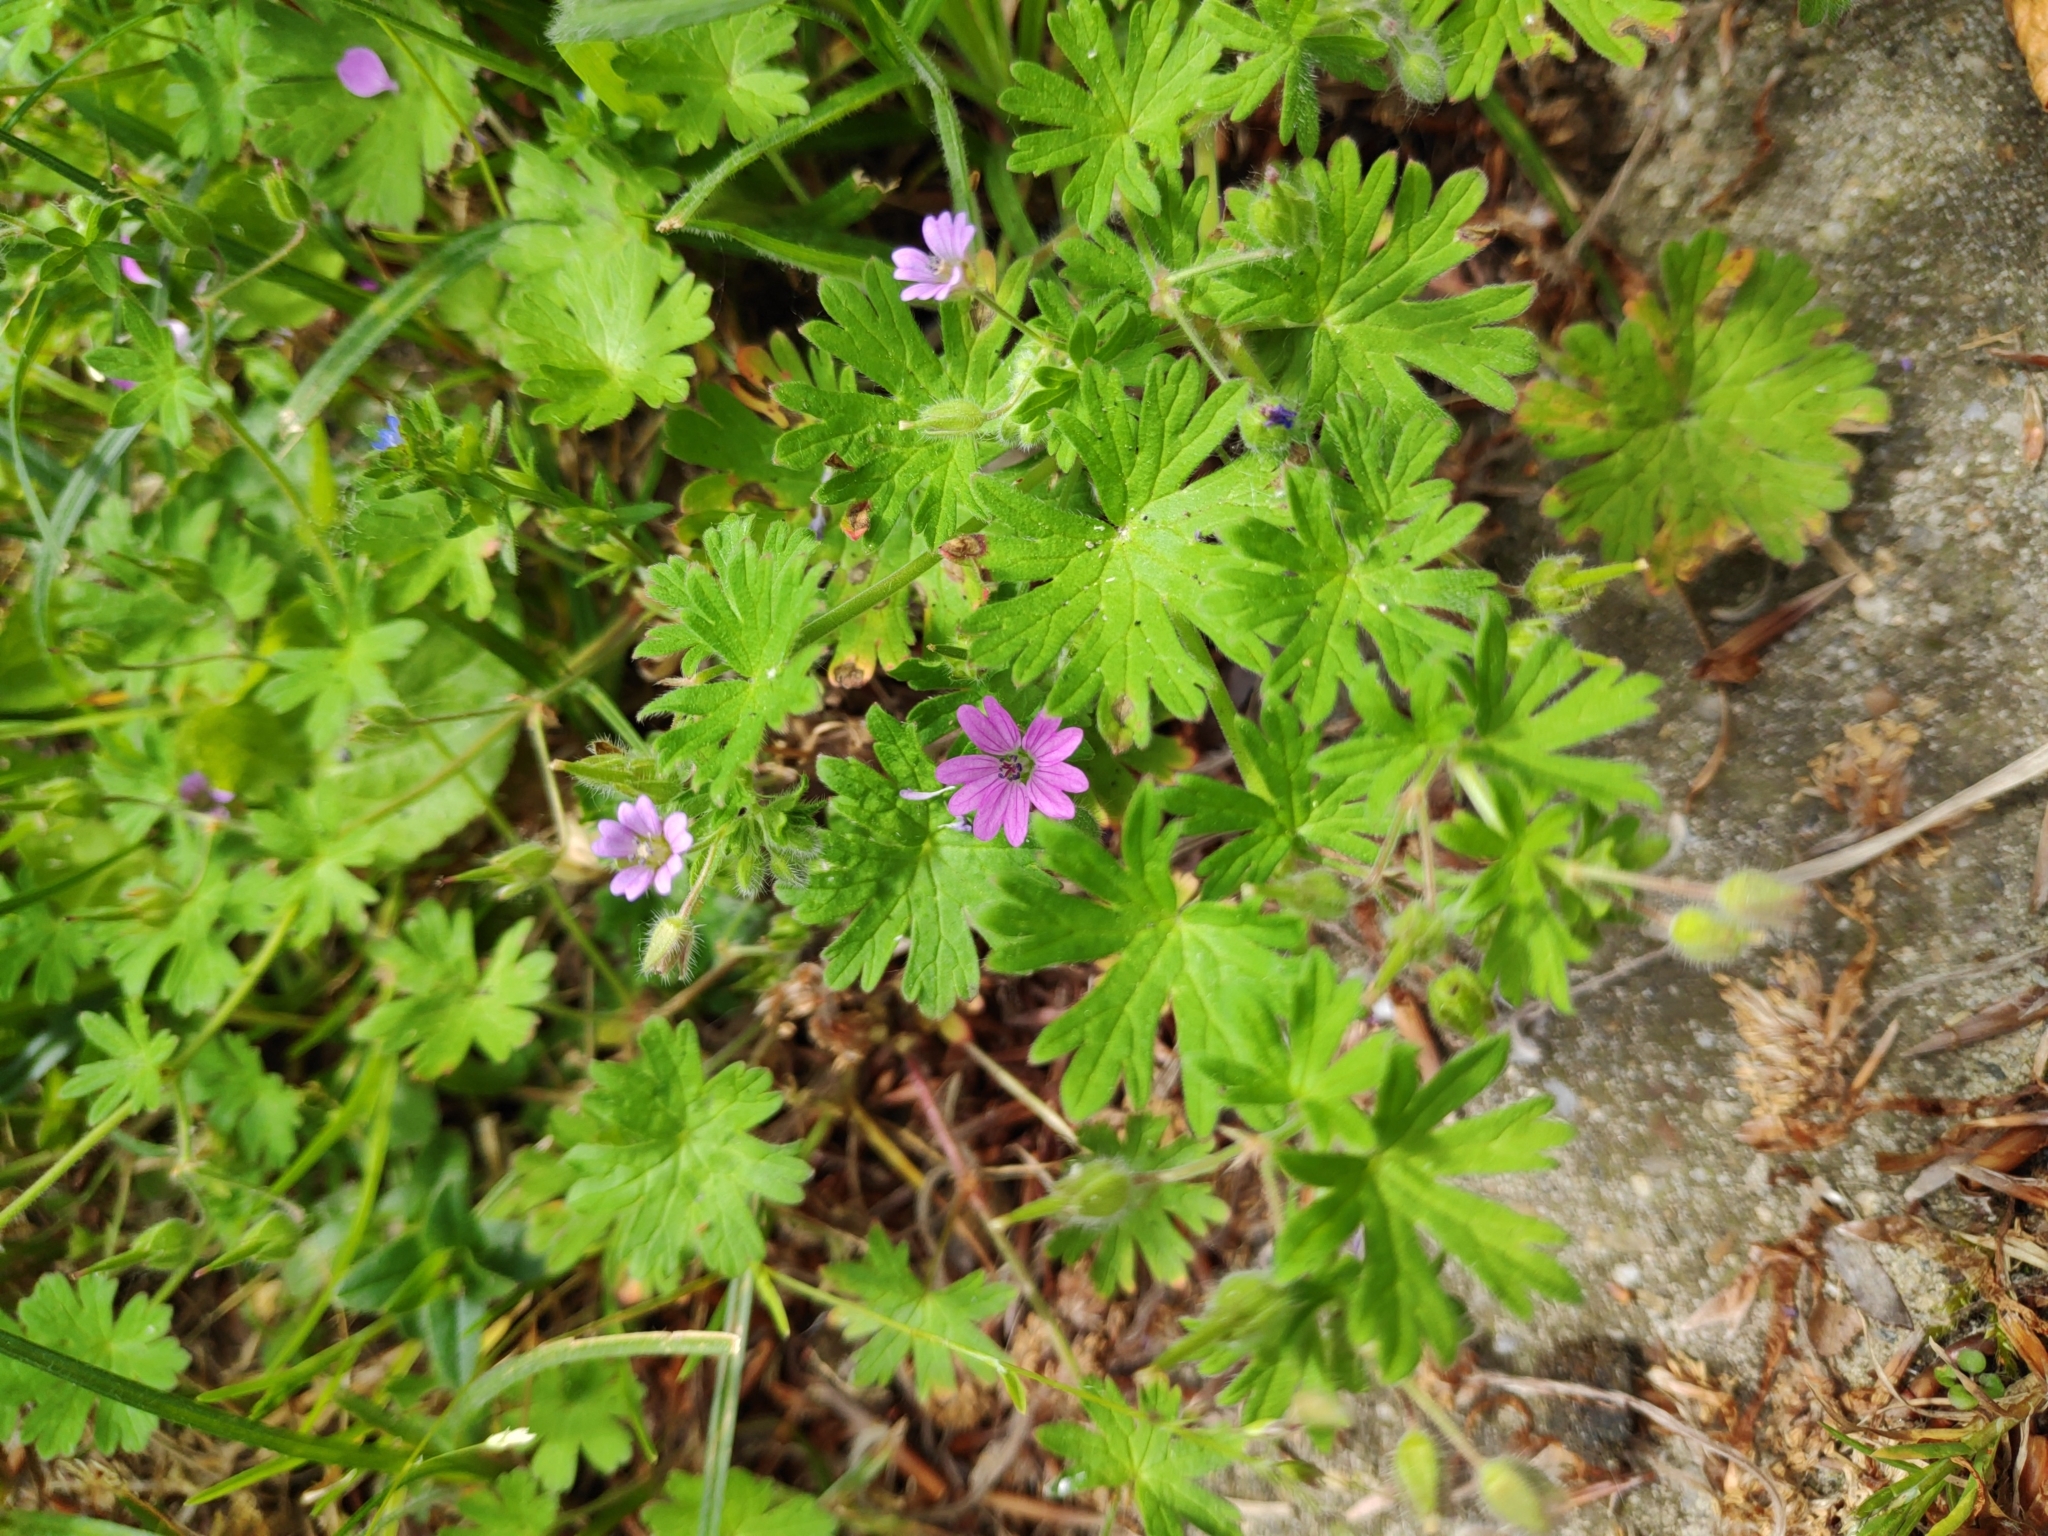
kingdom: Plantae
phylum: Tracheophyta
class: Magnoliopsida
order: Geraniales
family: Geraniaceae
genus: Geranium
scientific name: Geranium molle
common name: Dove's-foot crane's-bill
